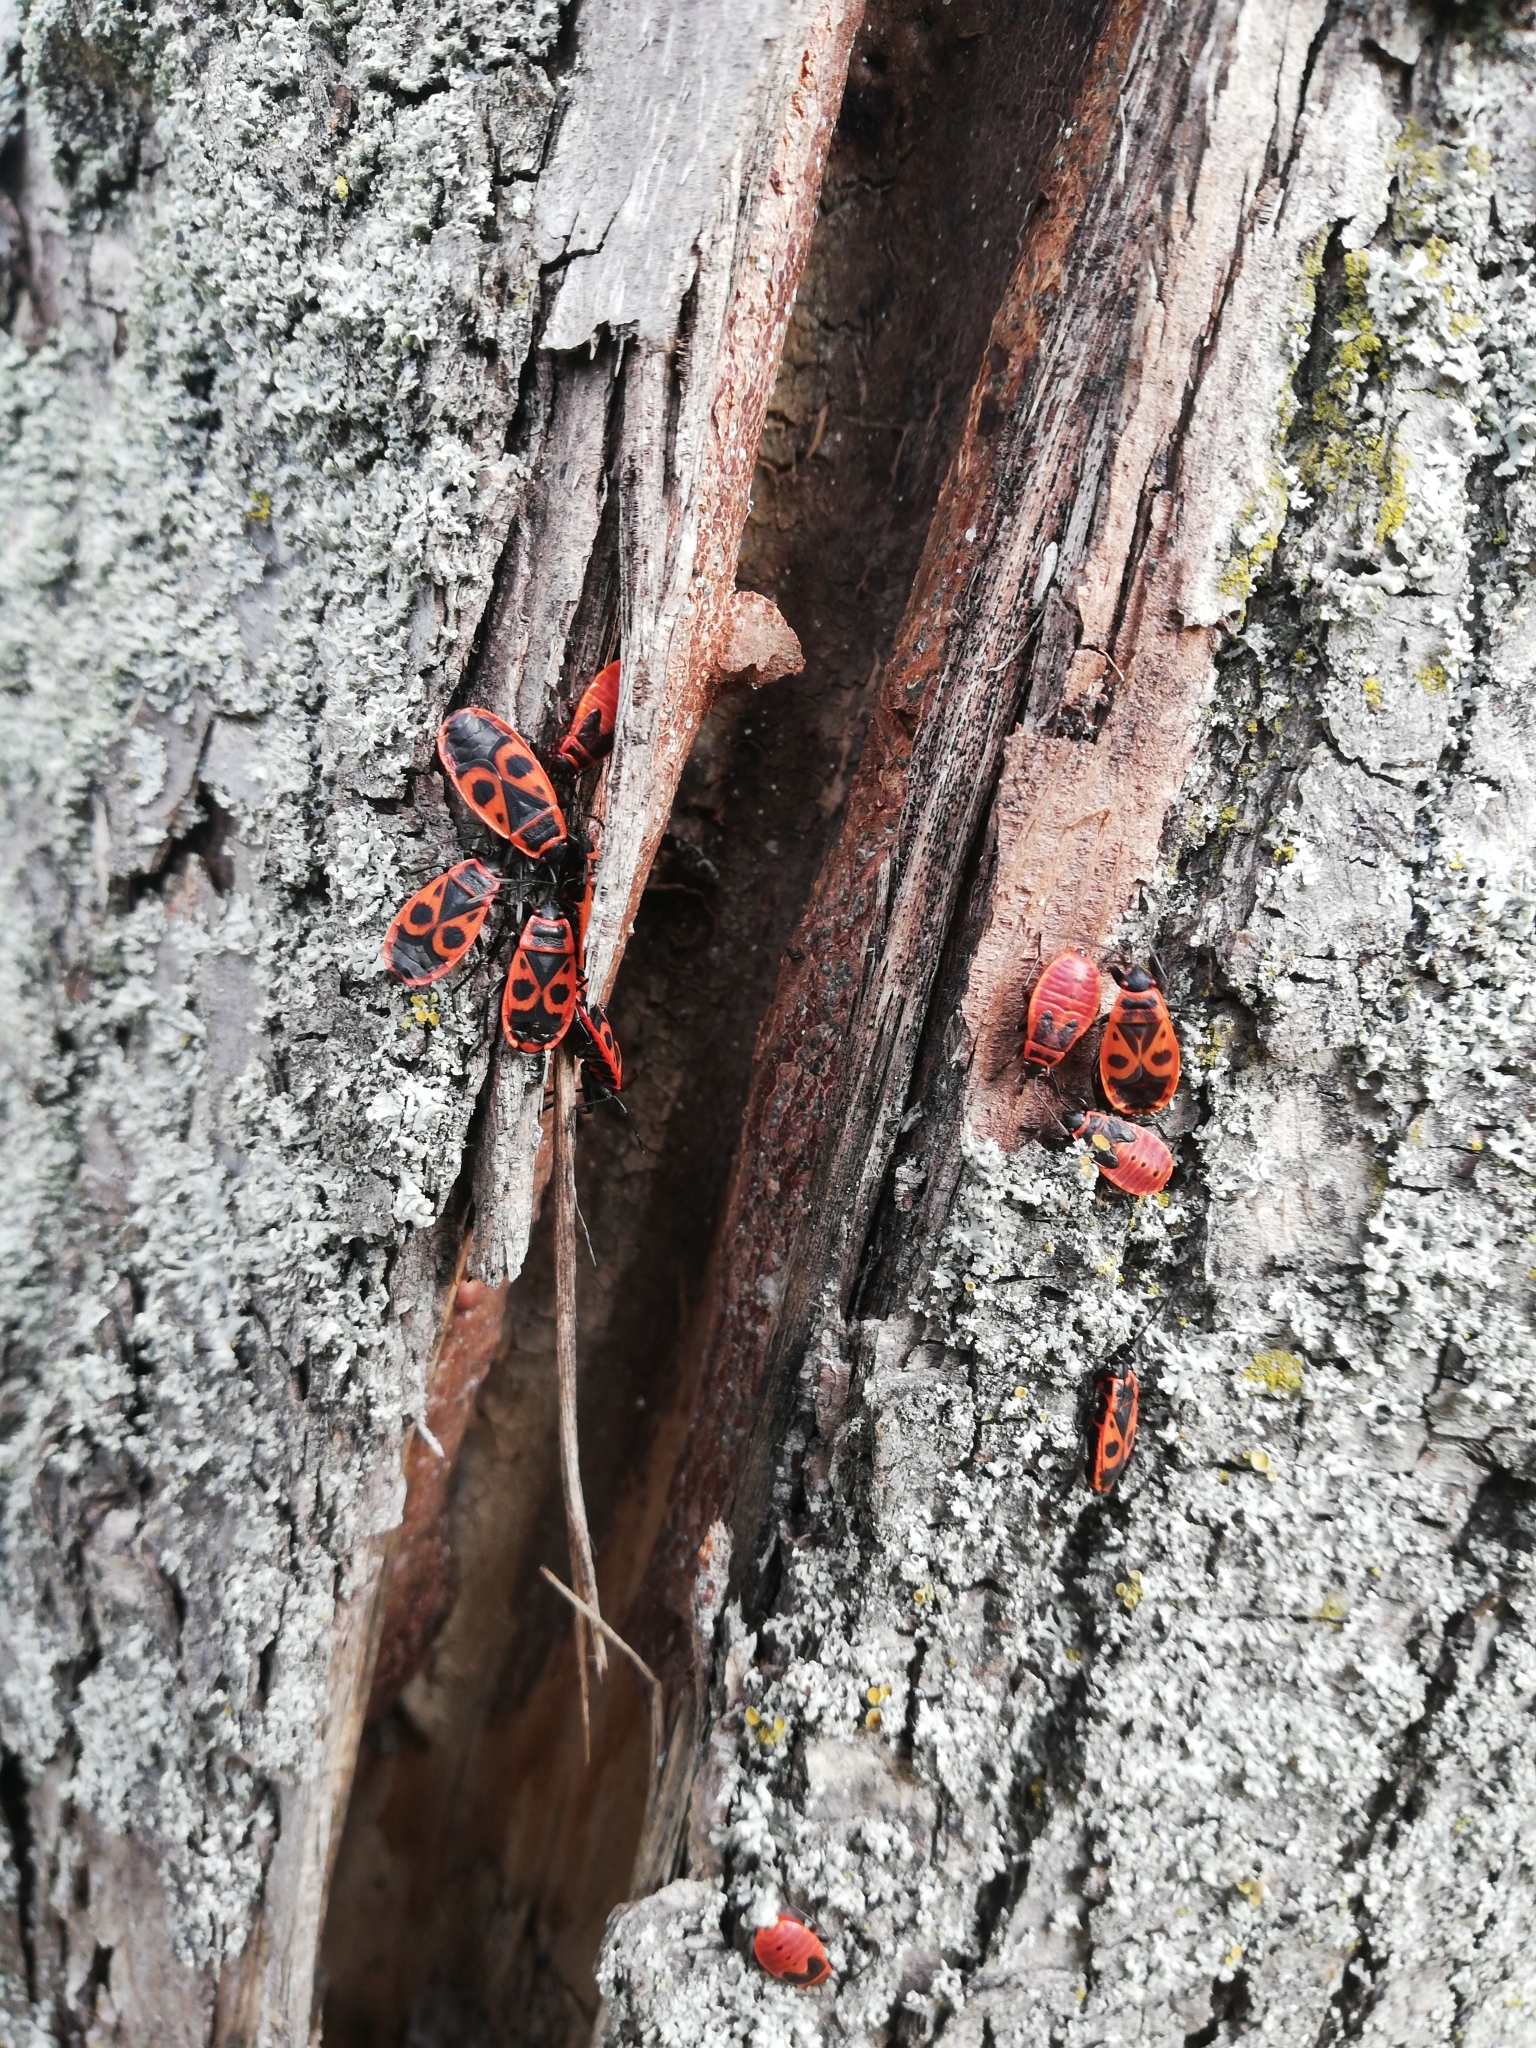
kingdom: Animalia
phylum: Arthropoda
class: Insecta
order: Hemiptera
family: Pyrrhocoridae
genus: Pyrrhocoris
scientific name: Pyrrhocoris apterus
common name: Firebug
